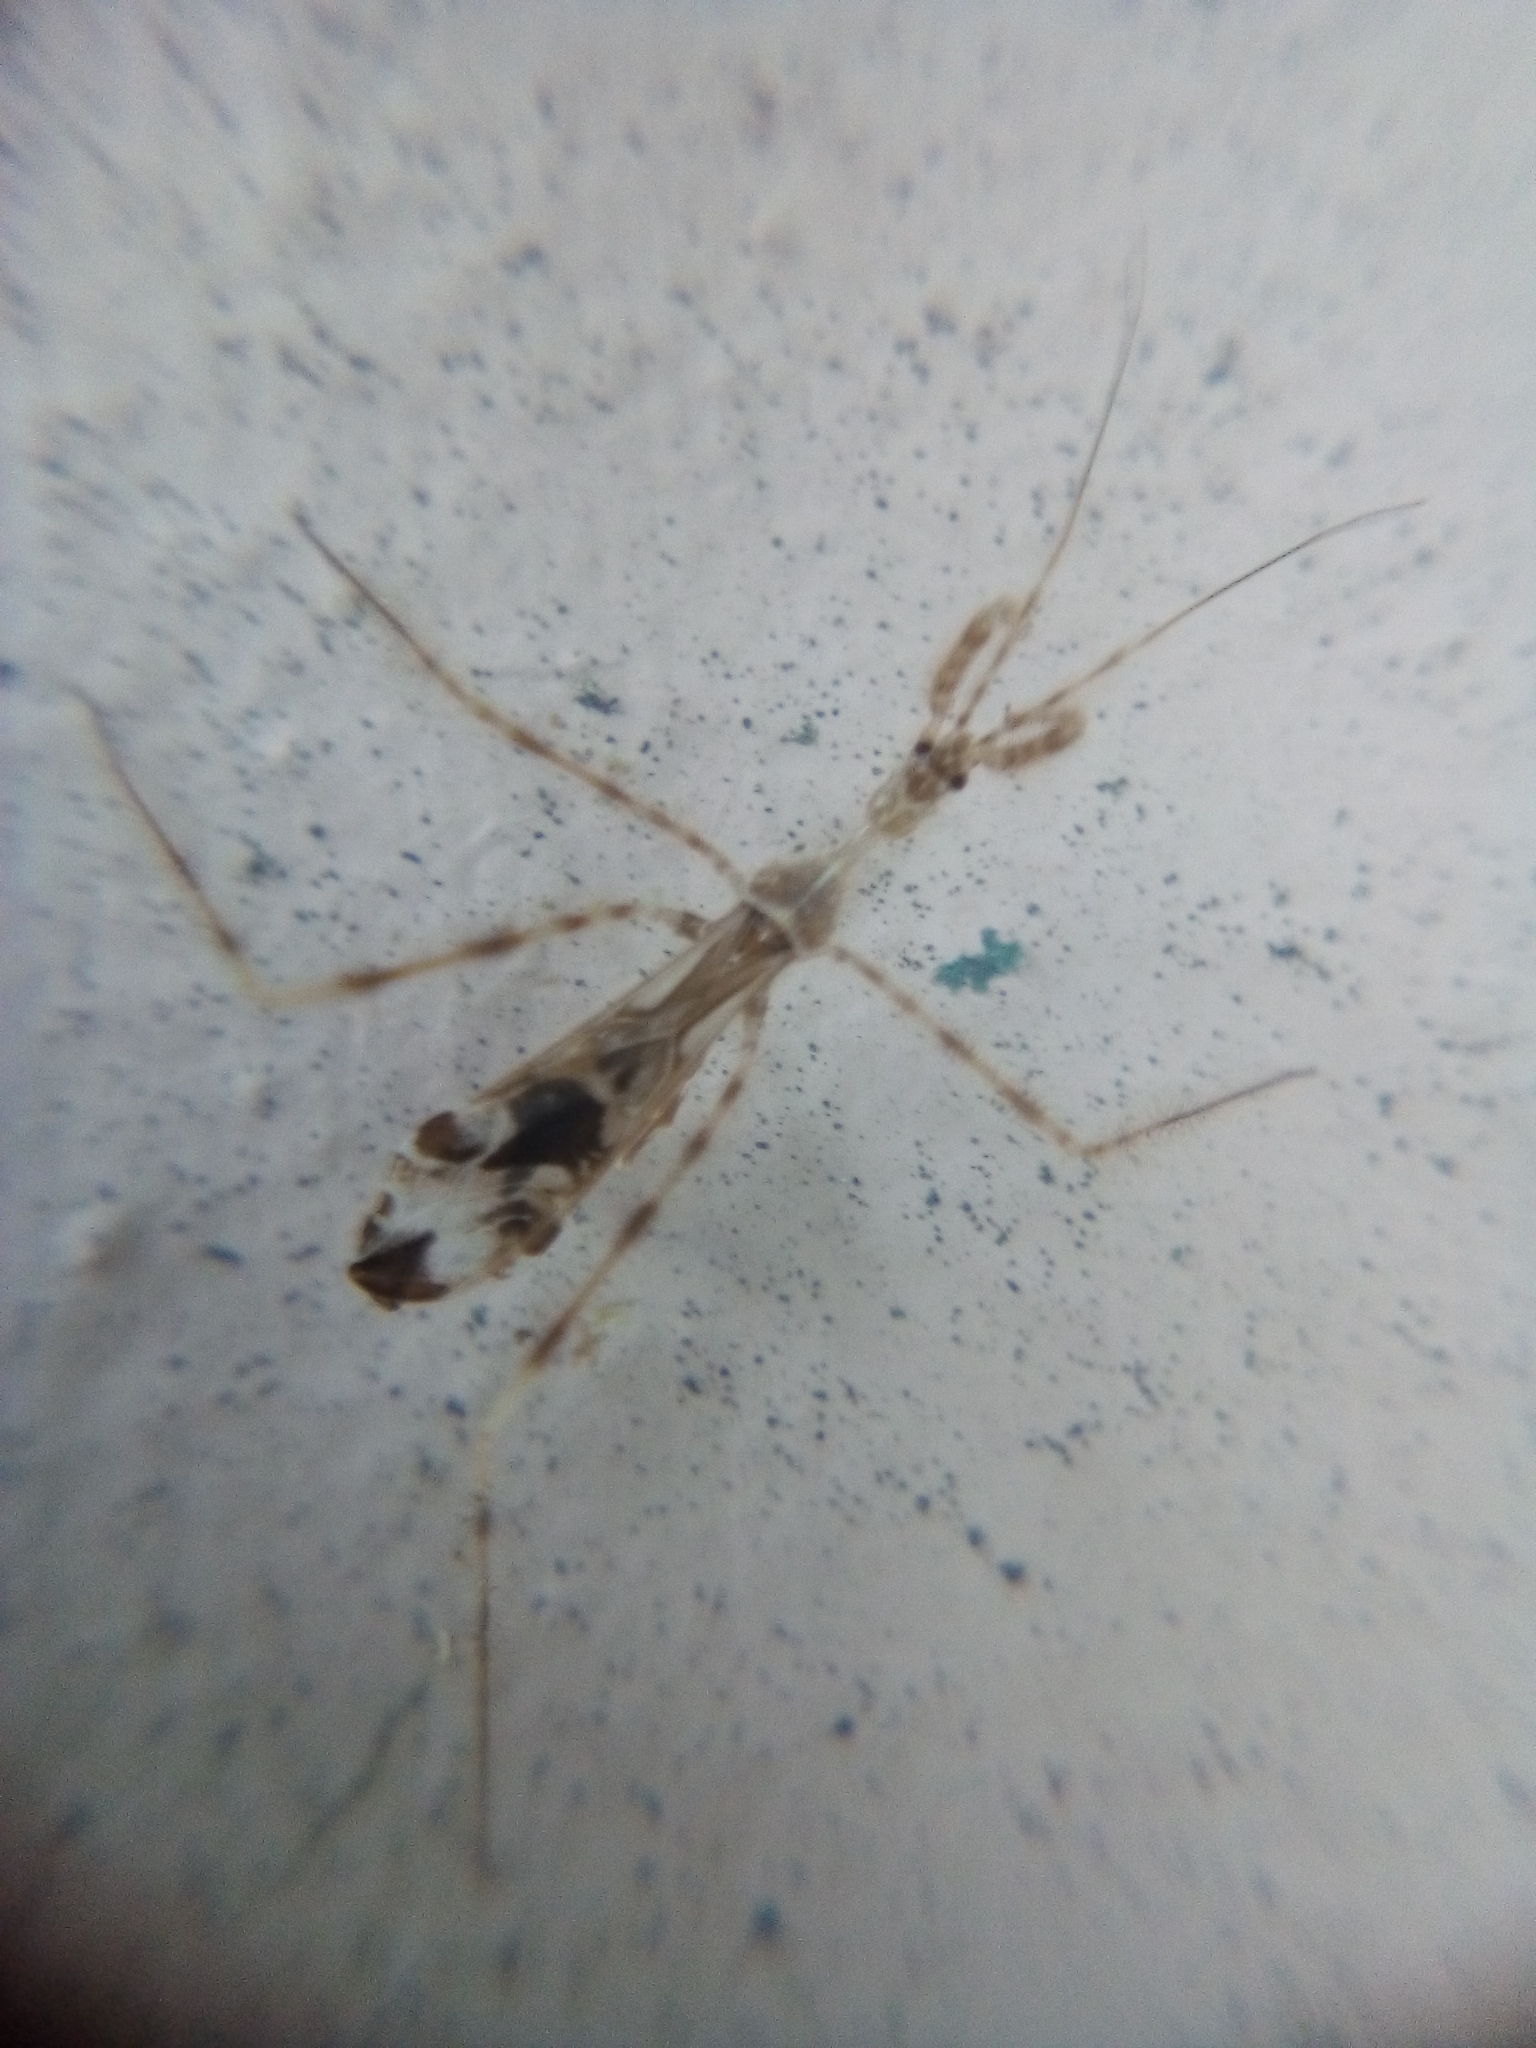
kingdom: Animalia
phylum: Arthropoda
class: Insecta
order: Hemiptera
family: Reduviidae
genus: Stenolemus
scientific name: Stenolemus fraterculus
